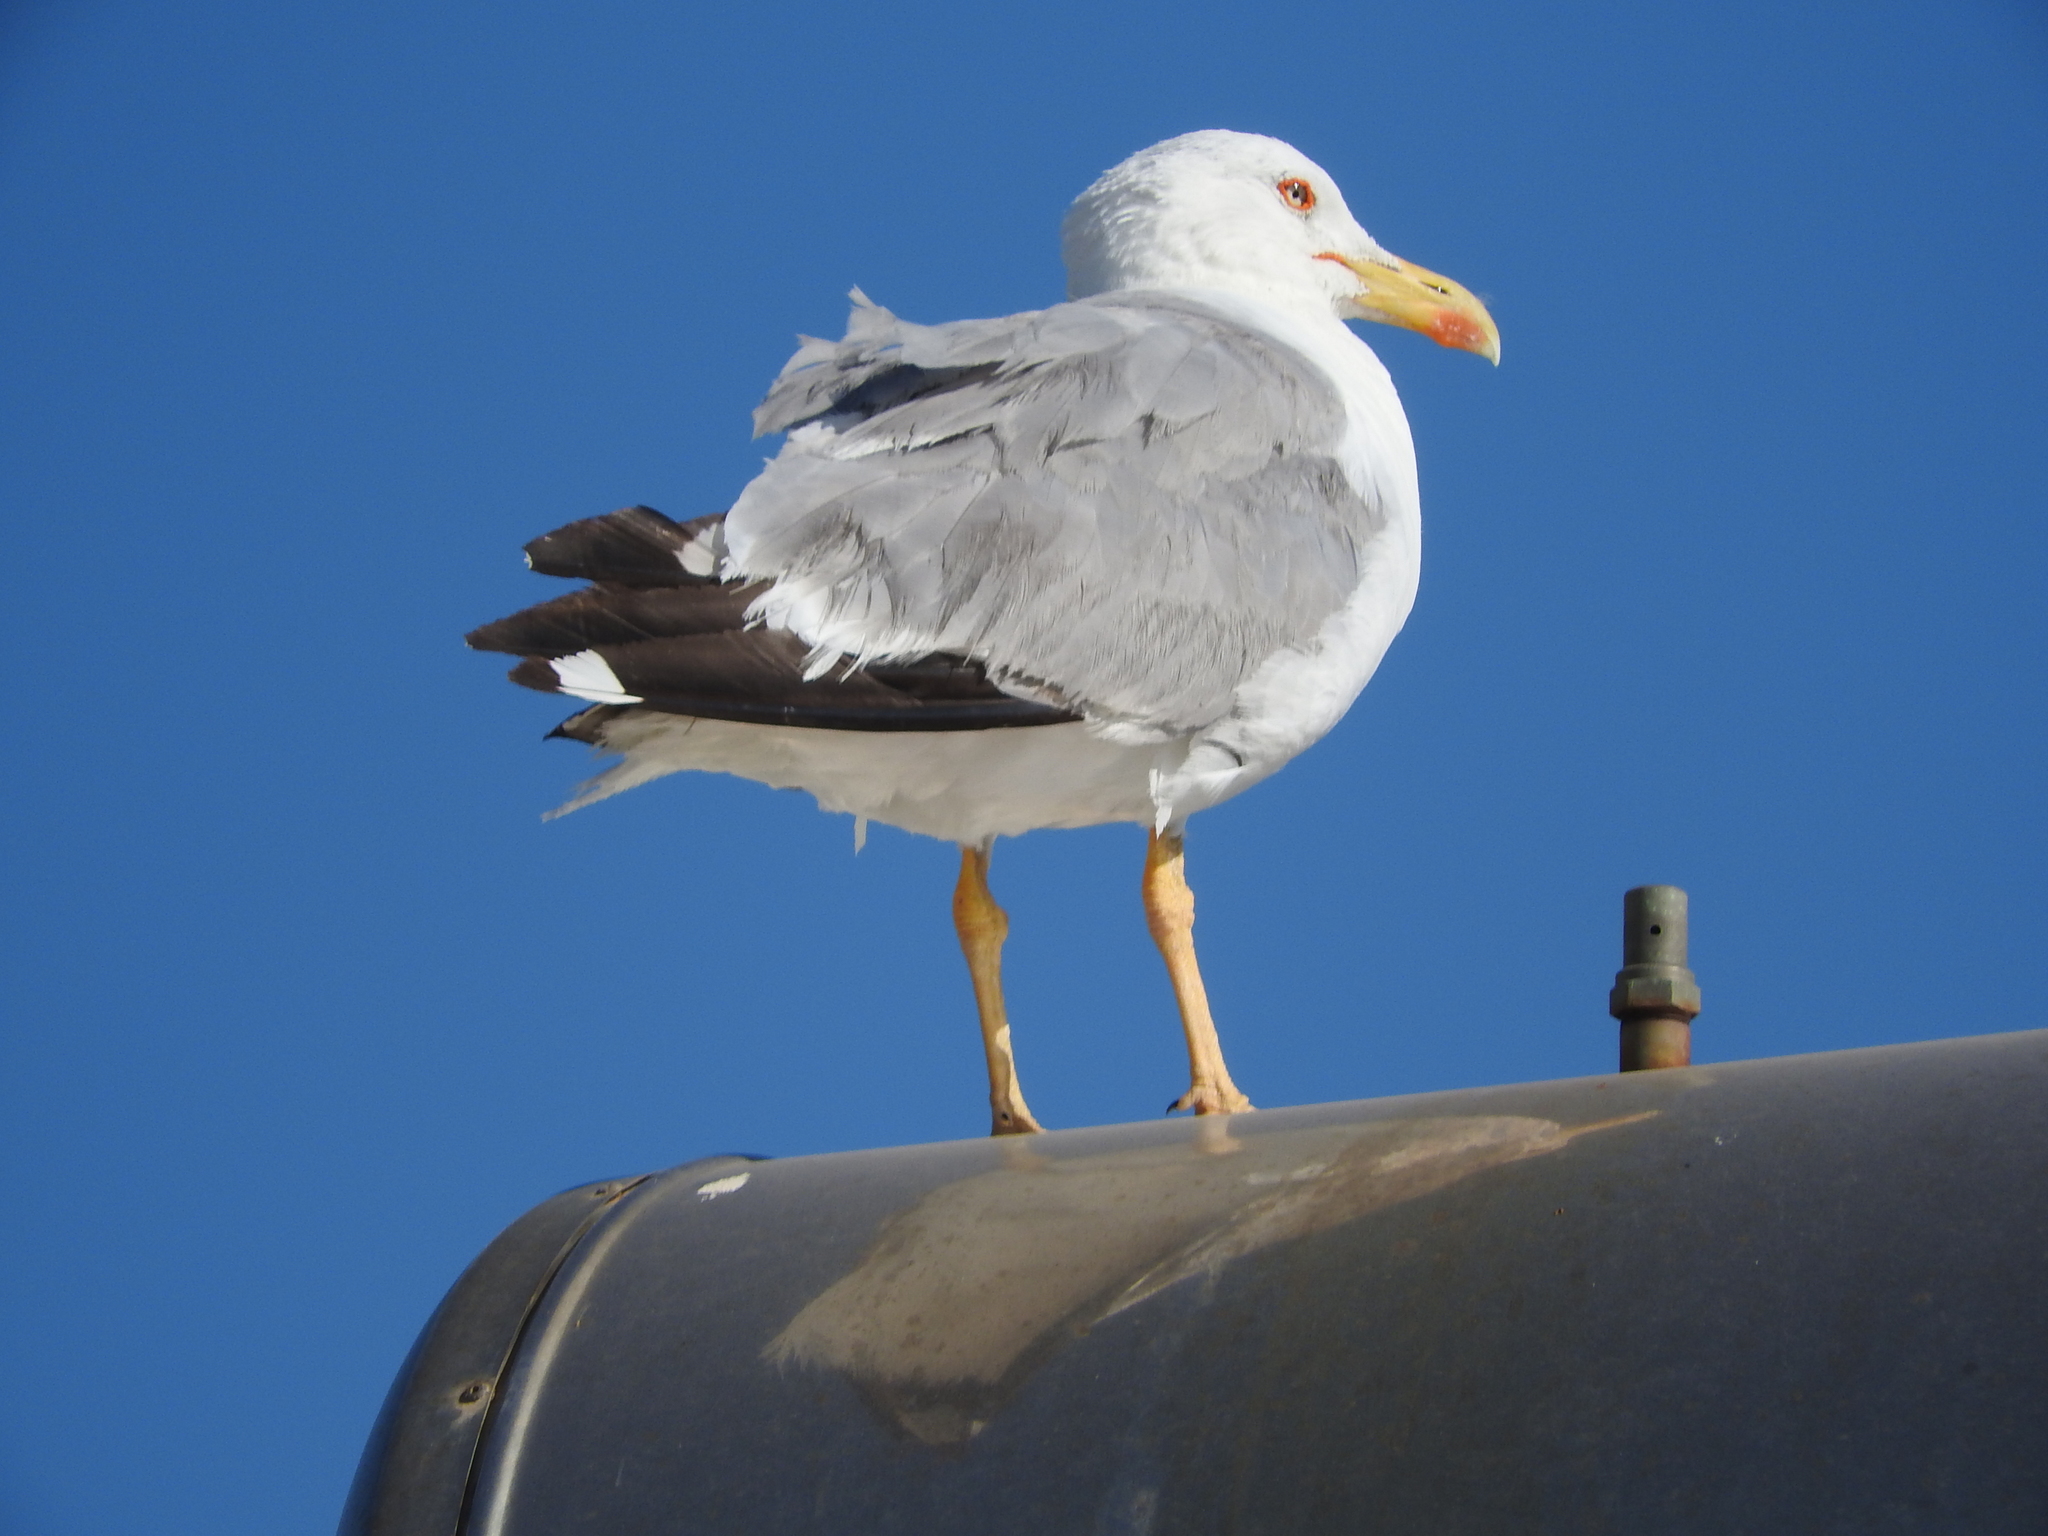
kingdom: Animalia
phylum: Chordata
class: Aves
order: Charadriiformes
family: Laridae
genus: Larus
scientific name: Larus michahellis
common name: Yellow-legged gull
